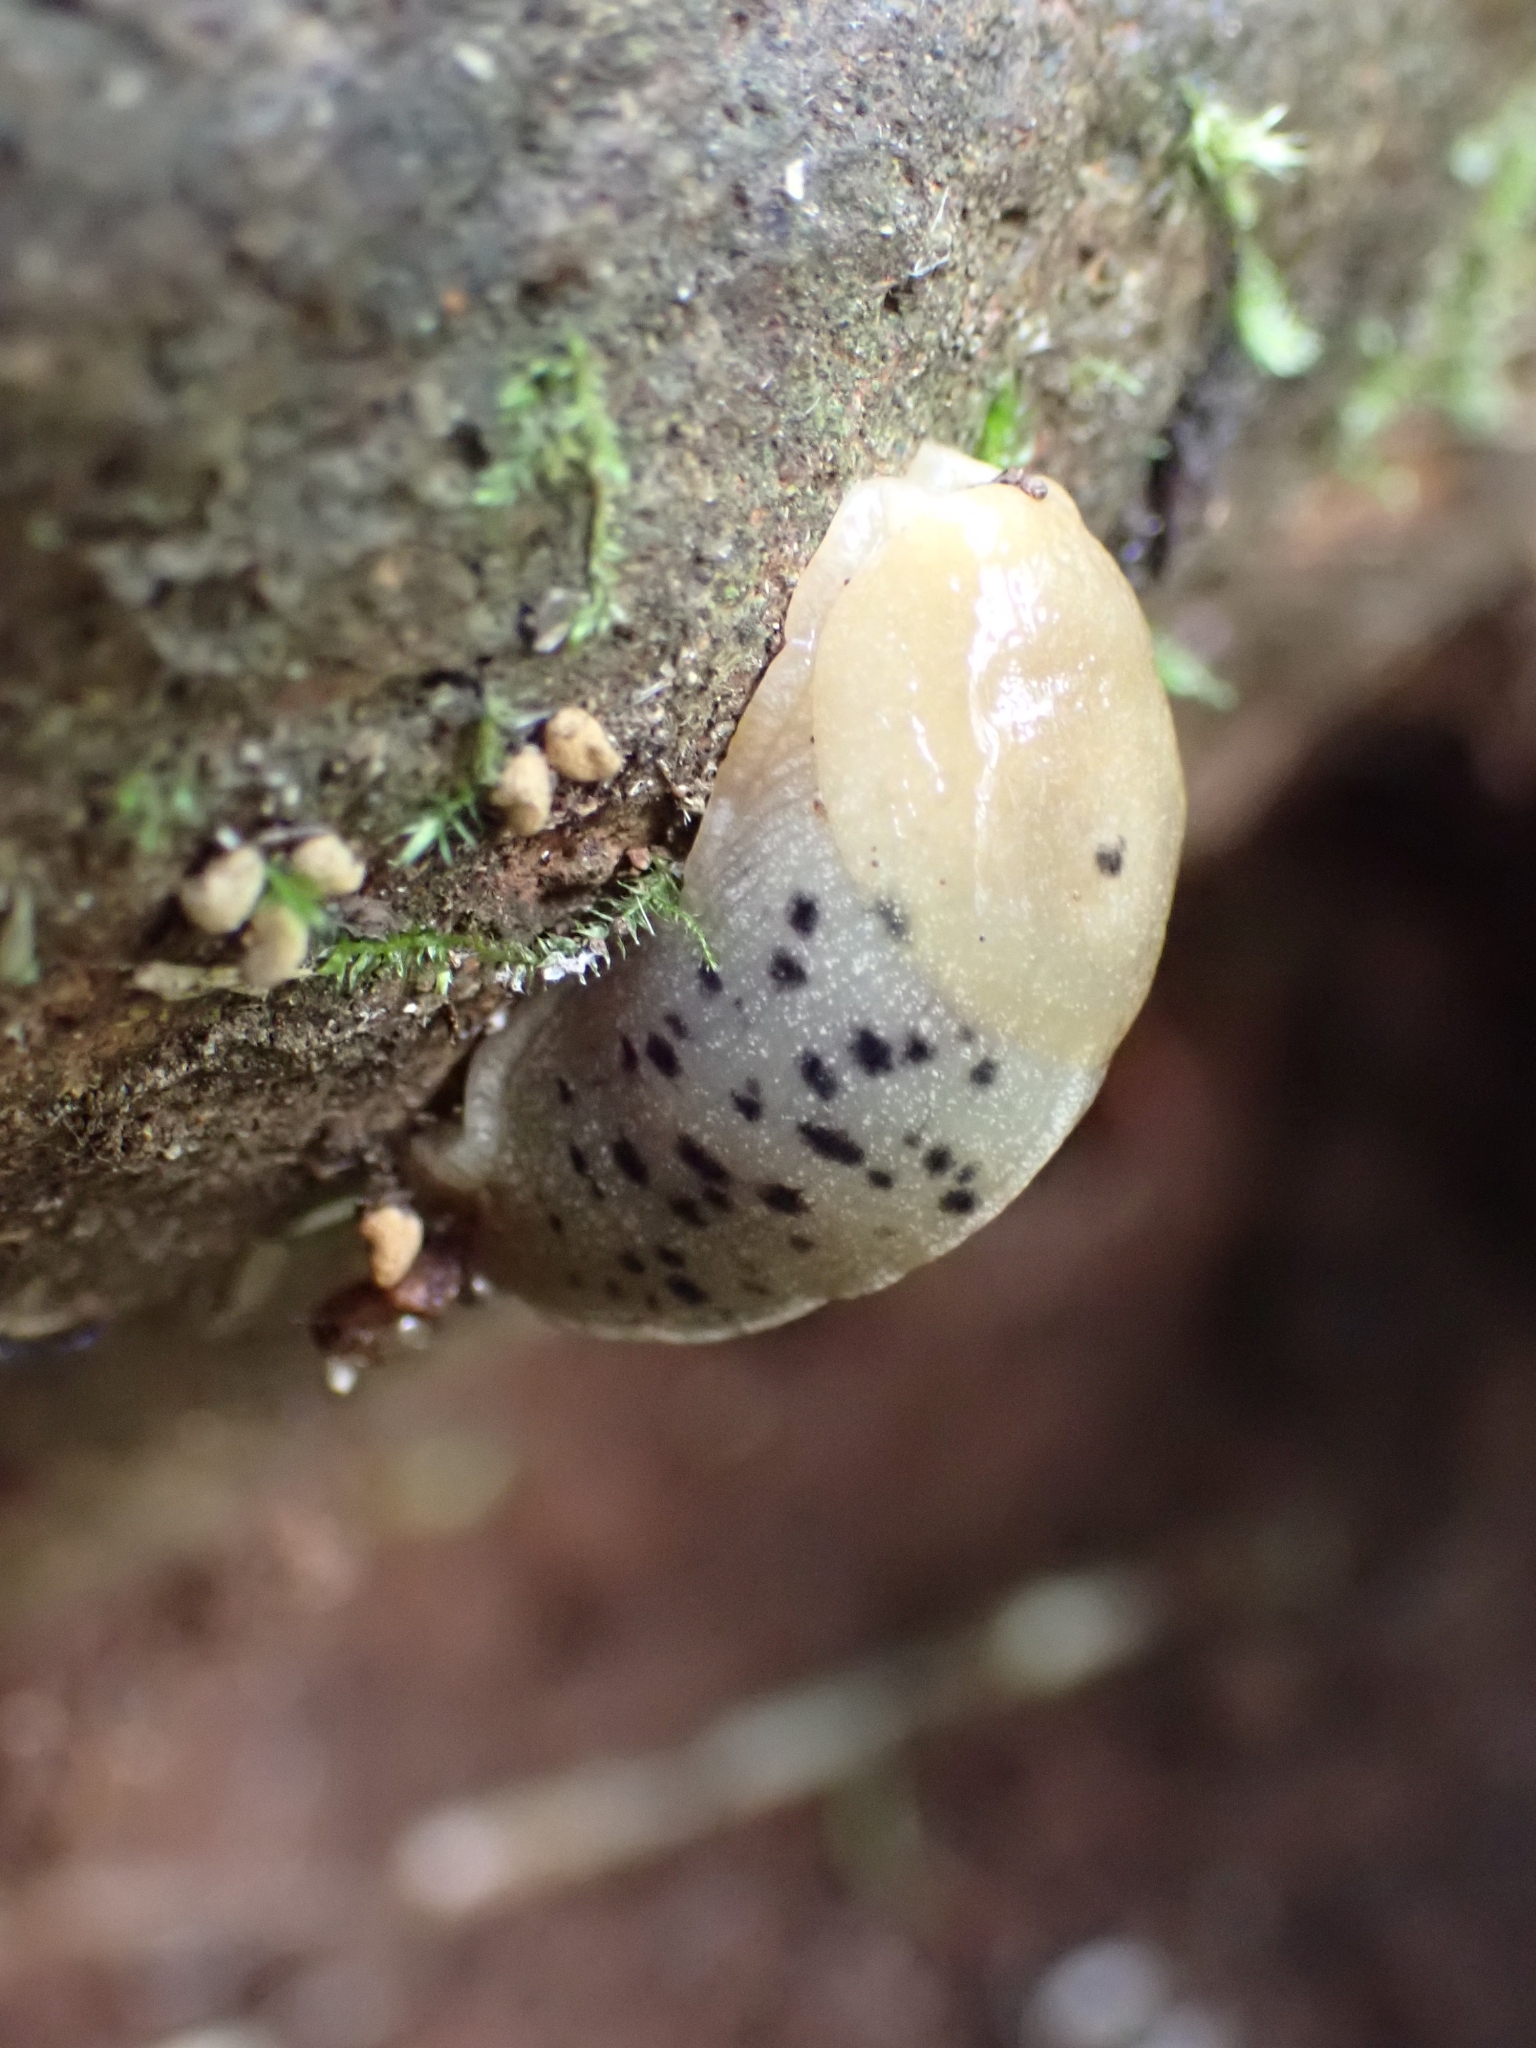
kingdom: Animalia
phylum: Mollusca
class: Gastropoda
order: Stylommatophora
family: Ariolimacidae
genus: Ariolimax
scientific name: Ariolimax columbianus
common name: Pacific banana slug
